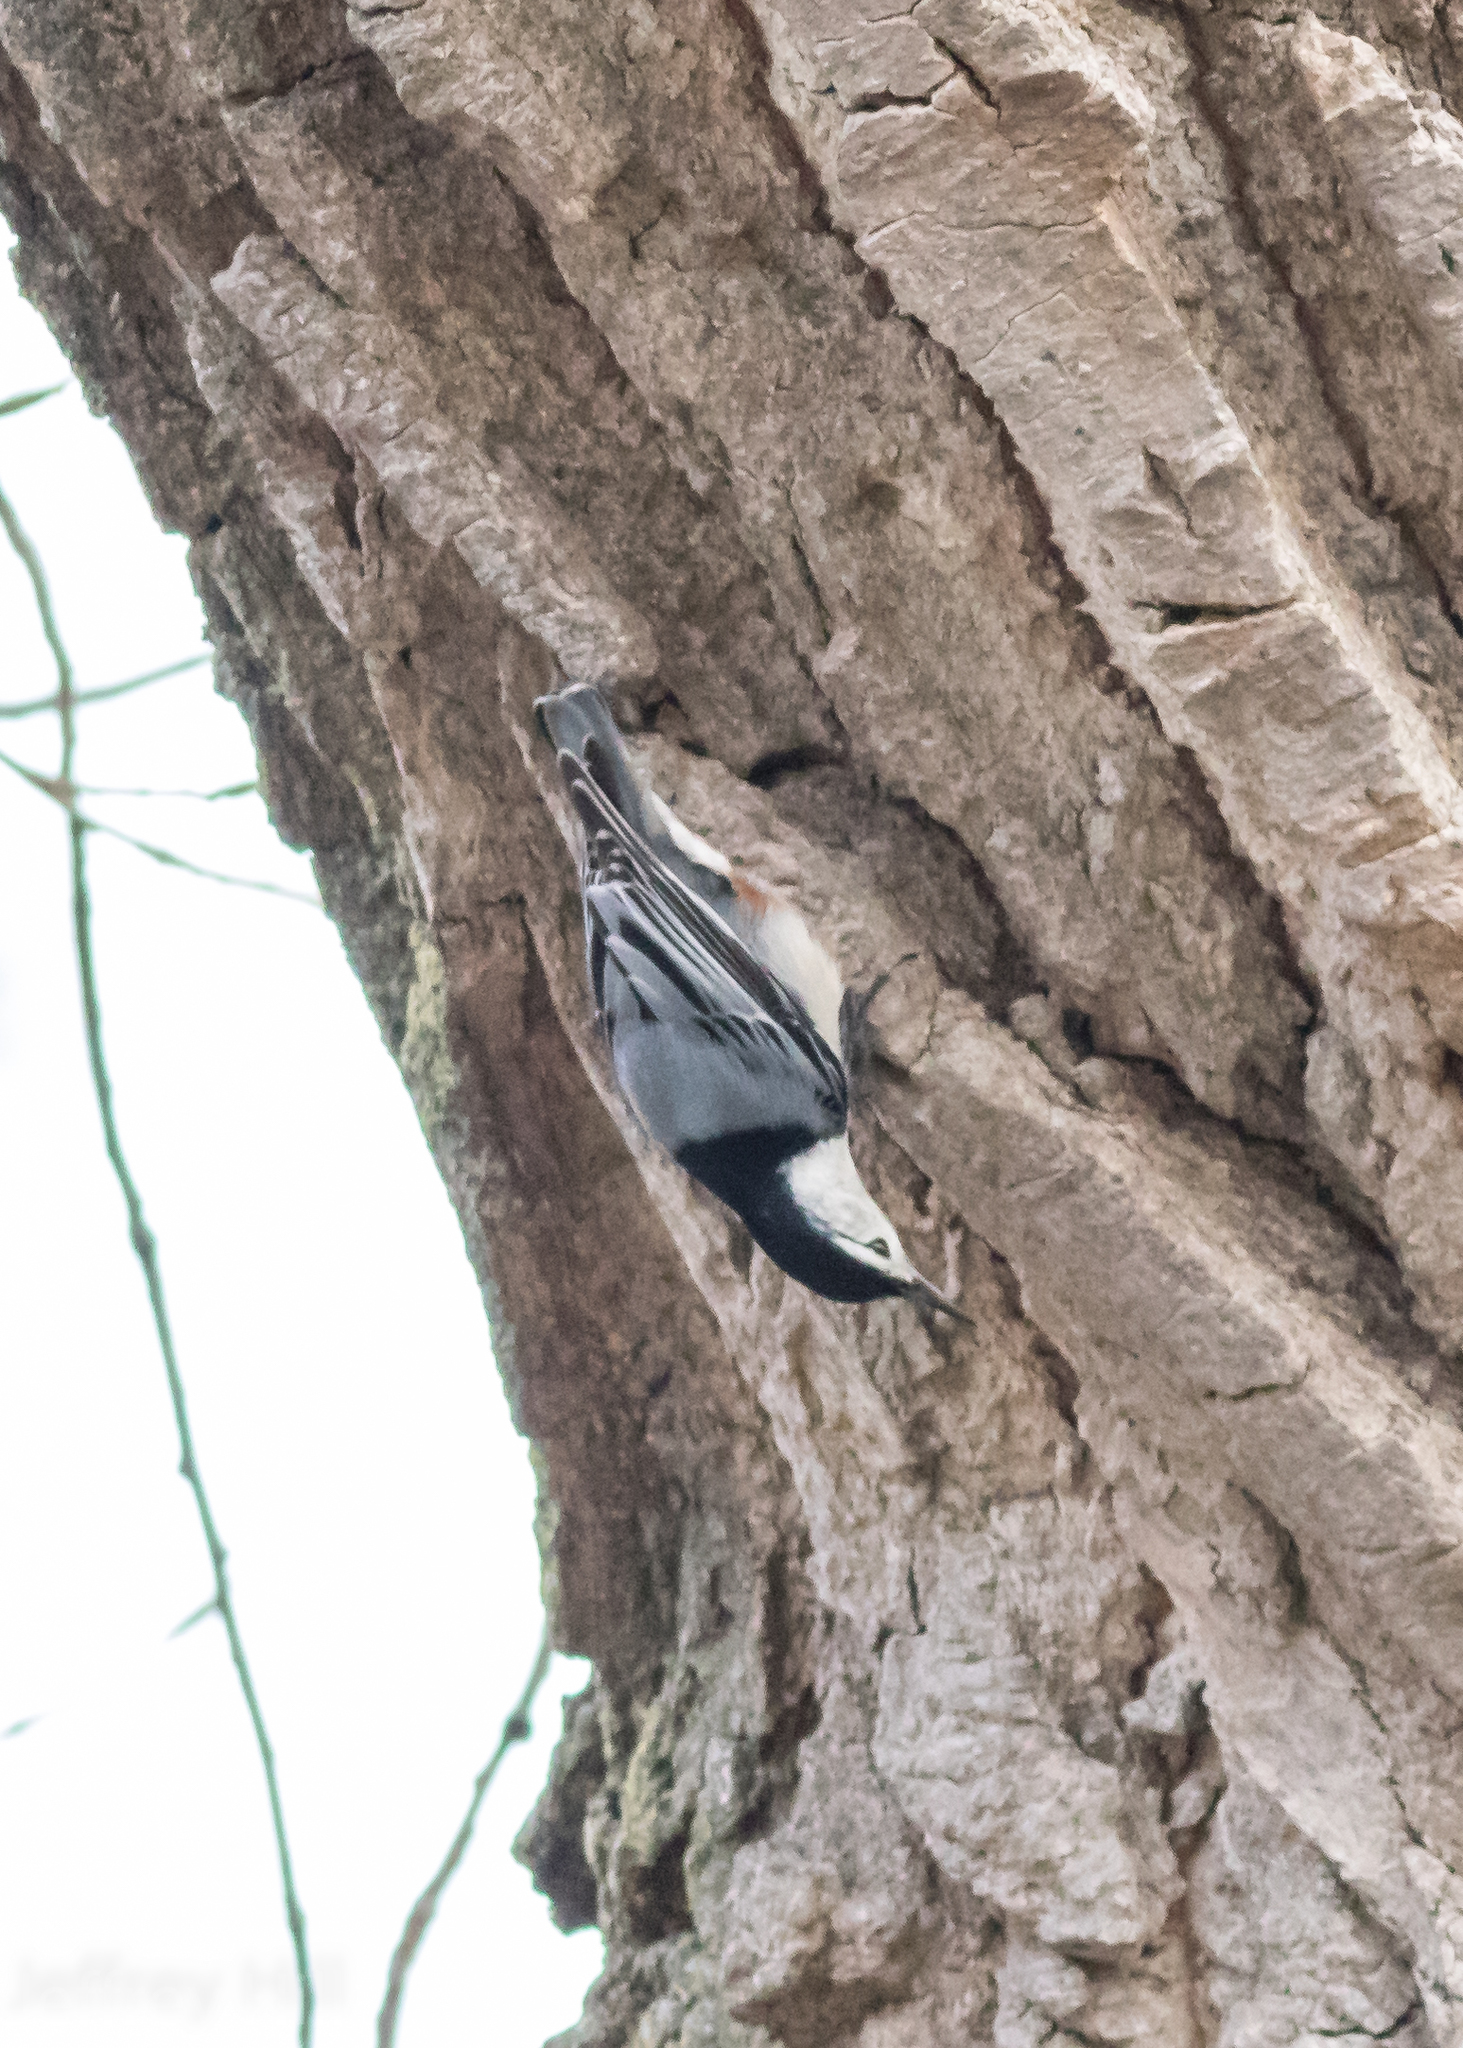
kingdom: Animalia
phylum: Chordata
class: Aves
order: Passeriformes
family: Sittidae
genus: Sitta
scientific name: Sitta carolinensis
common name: White-breasted nuthatch
